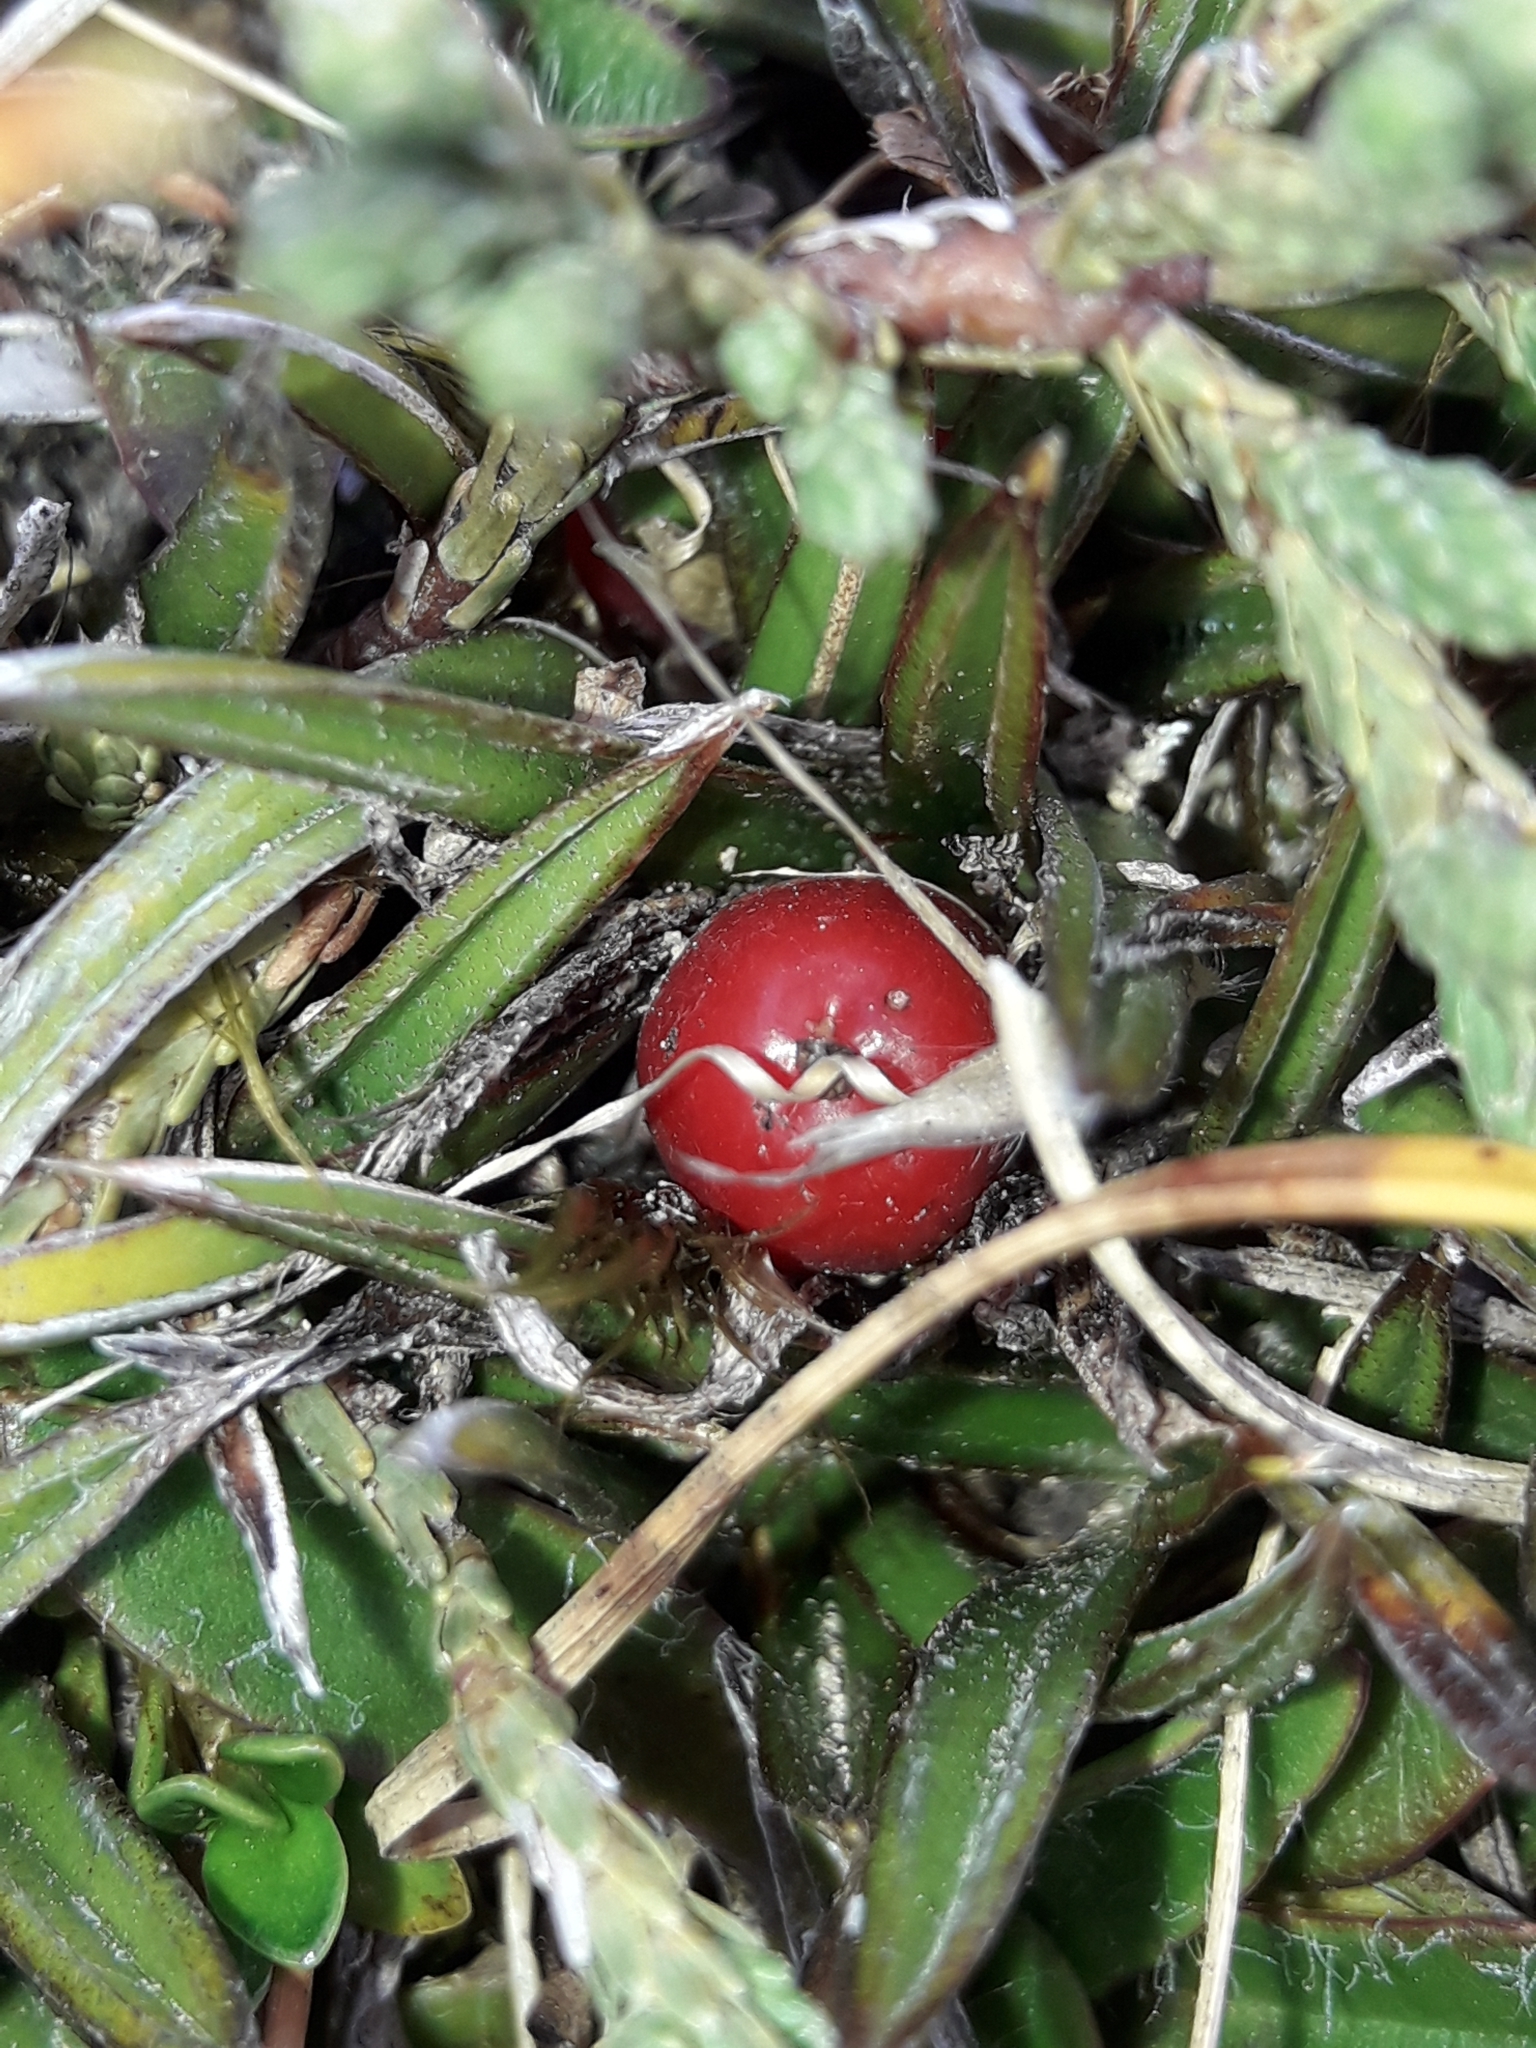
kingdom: Plantae
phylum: Tracheophyta
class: Liliopsida
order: Asparagales
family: Asteliaceae
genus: Astelia
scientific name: Astelia linearis
